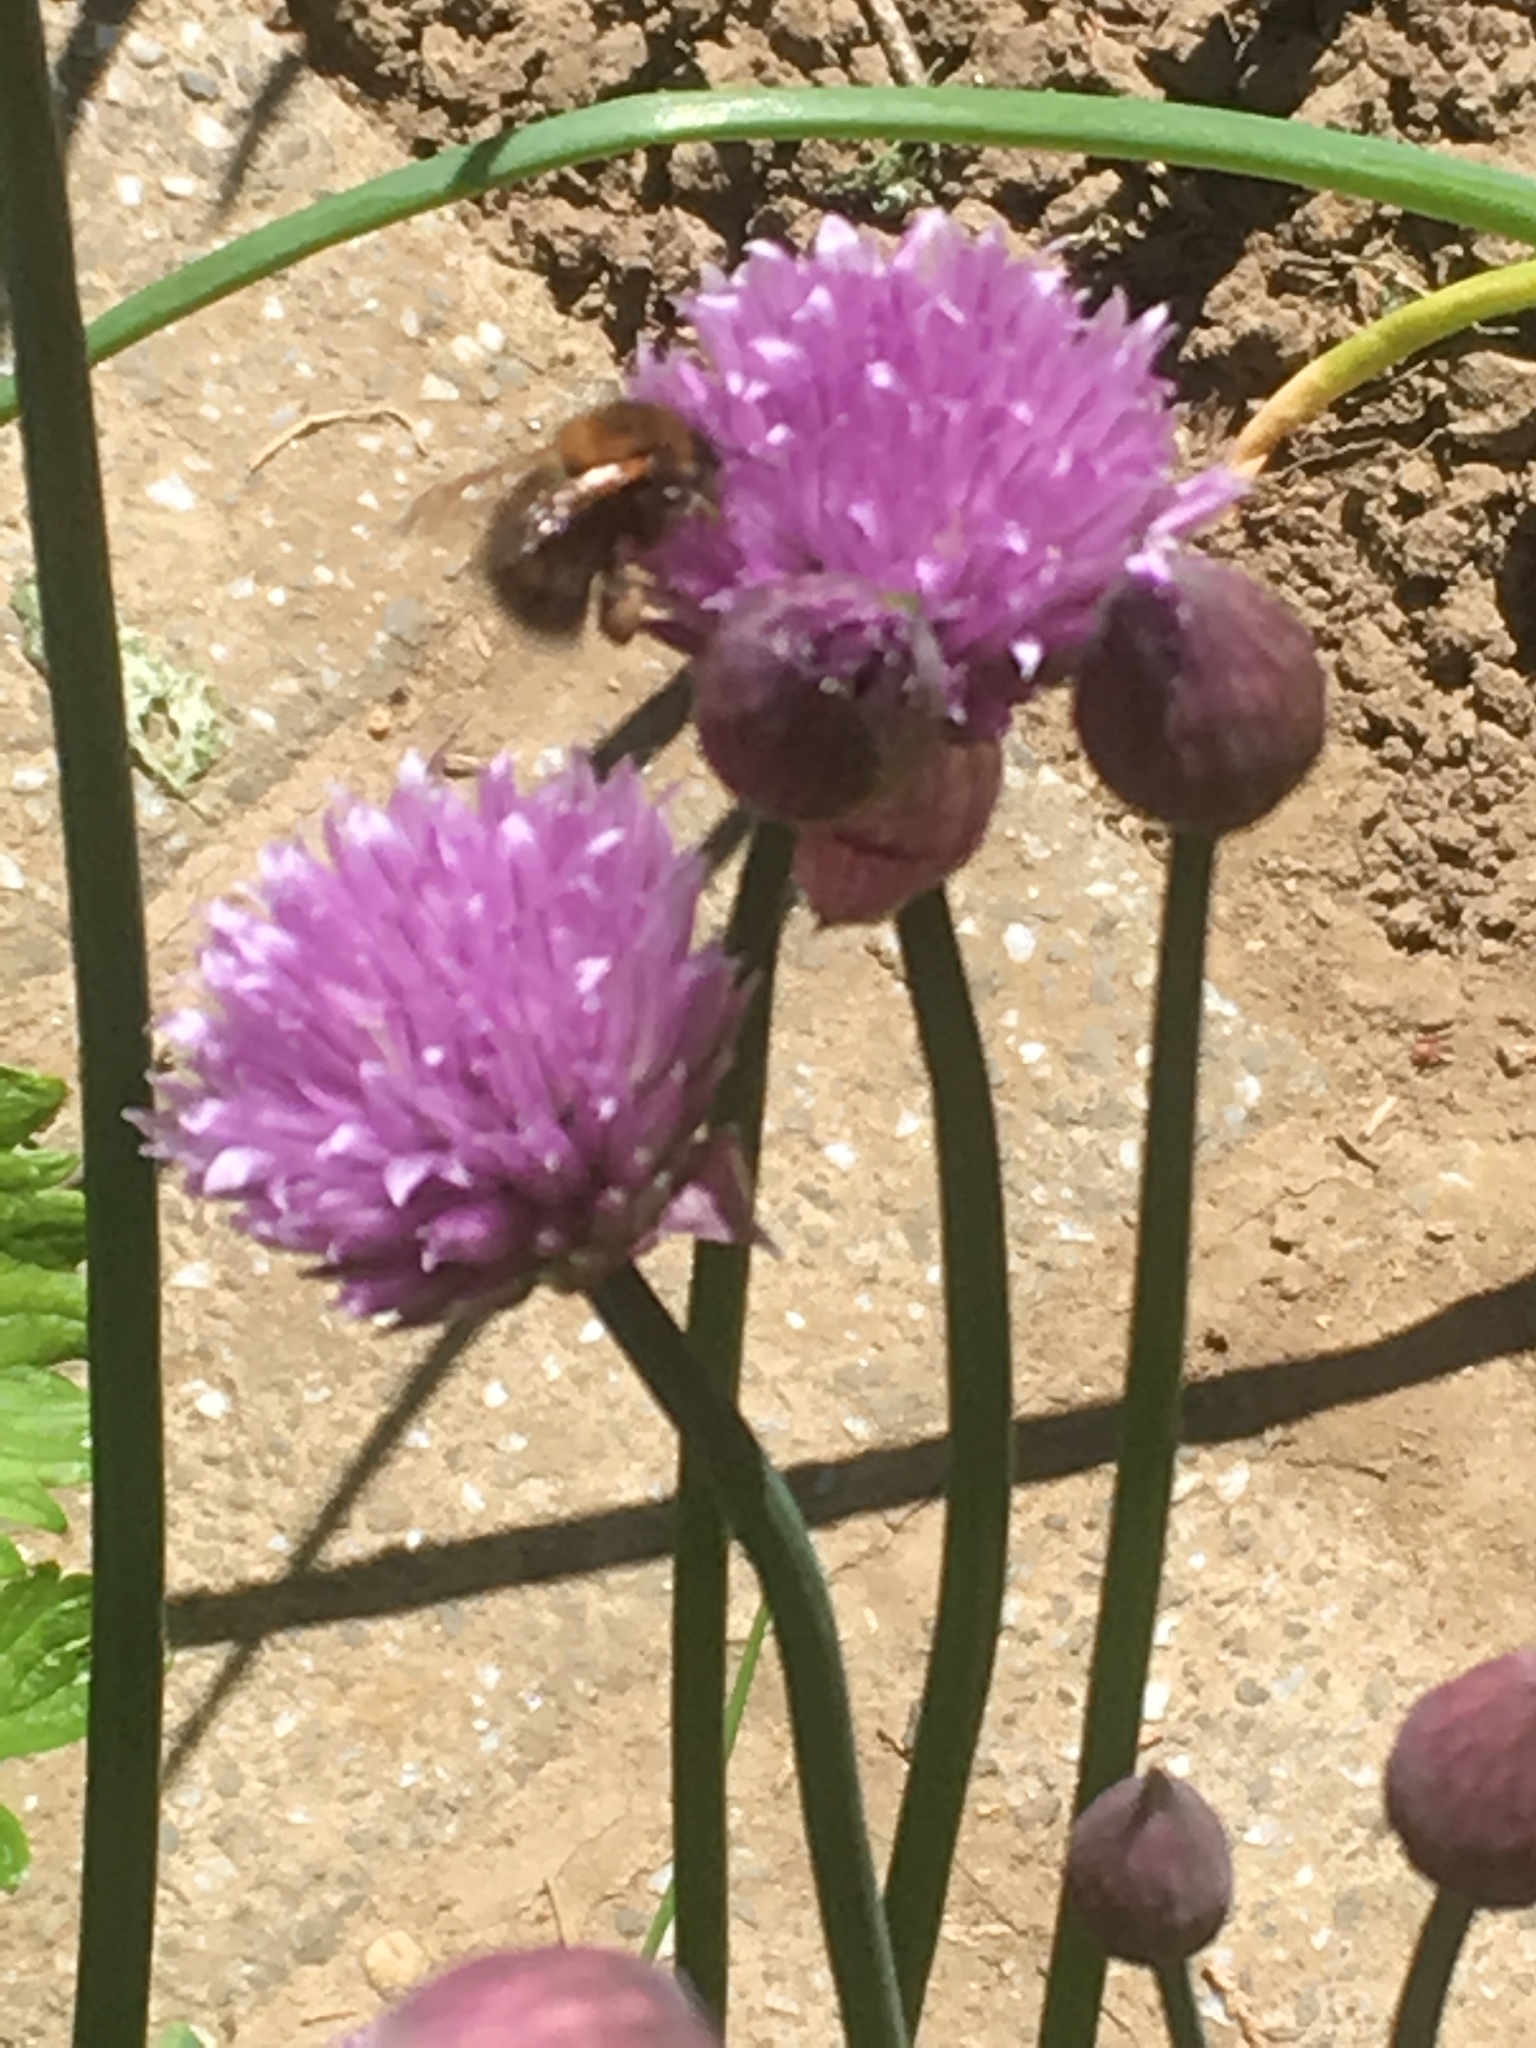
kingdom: Animalia
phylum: Arthropoda
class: Insecta
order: Hymenoptera
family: Apidae
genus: Bombus
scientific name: Bombus hypnorum
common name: New garden bumblebee
